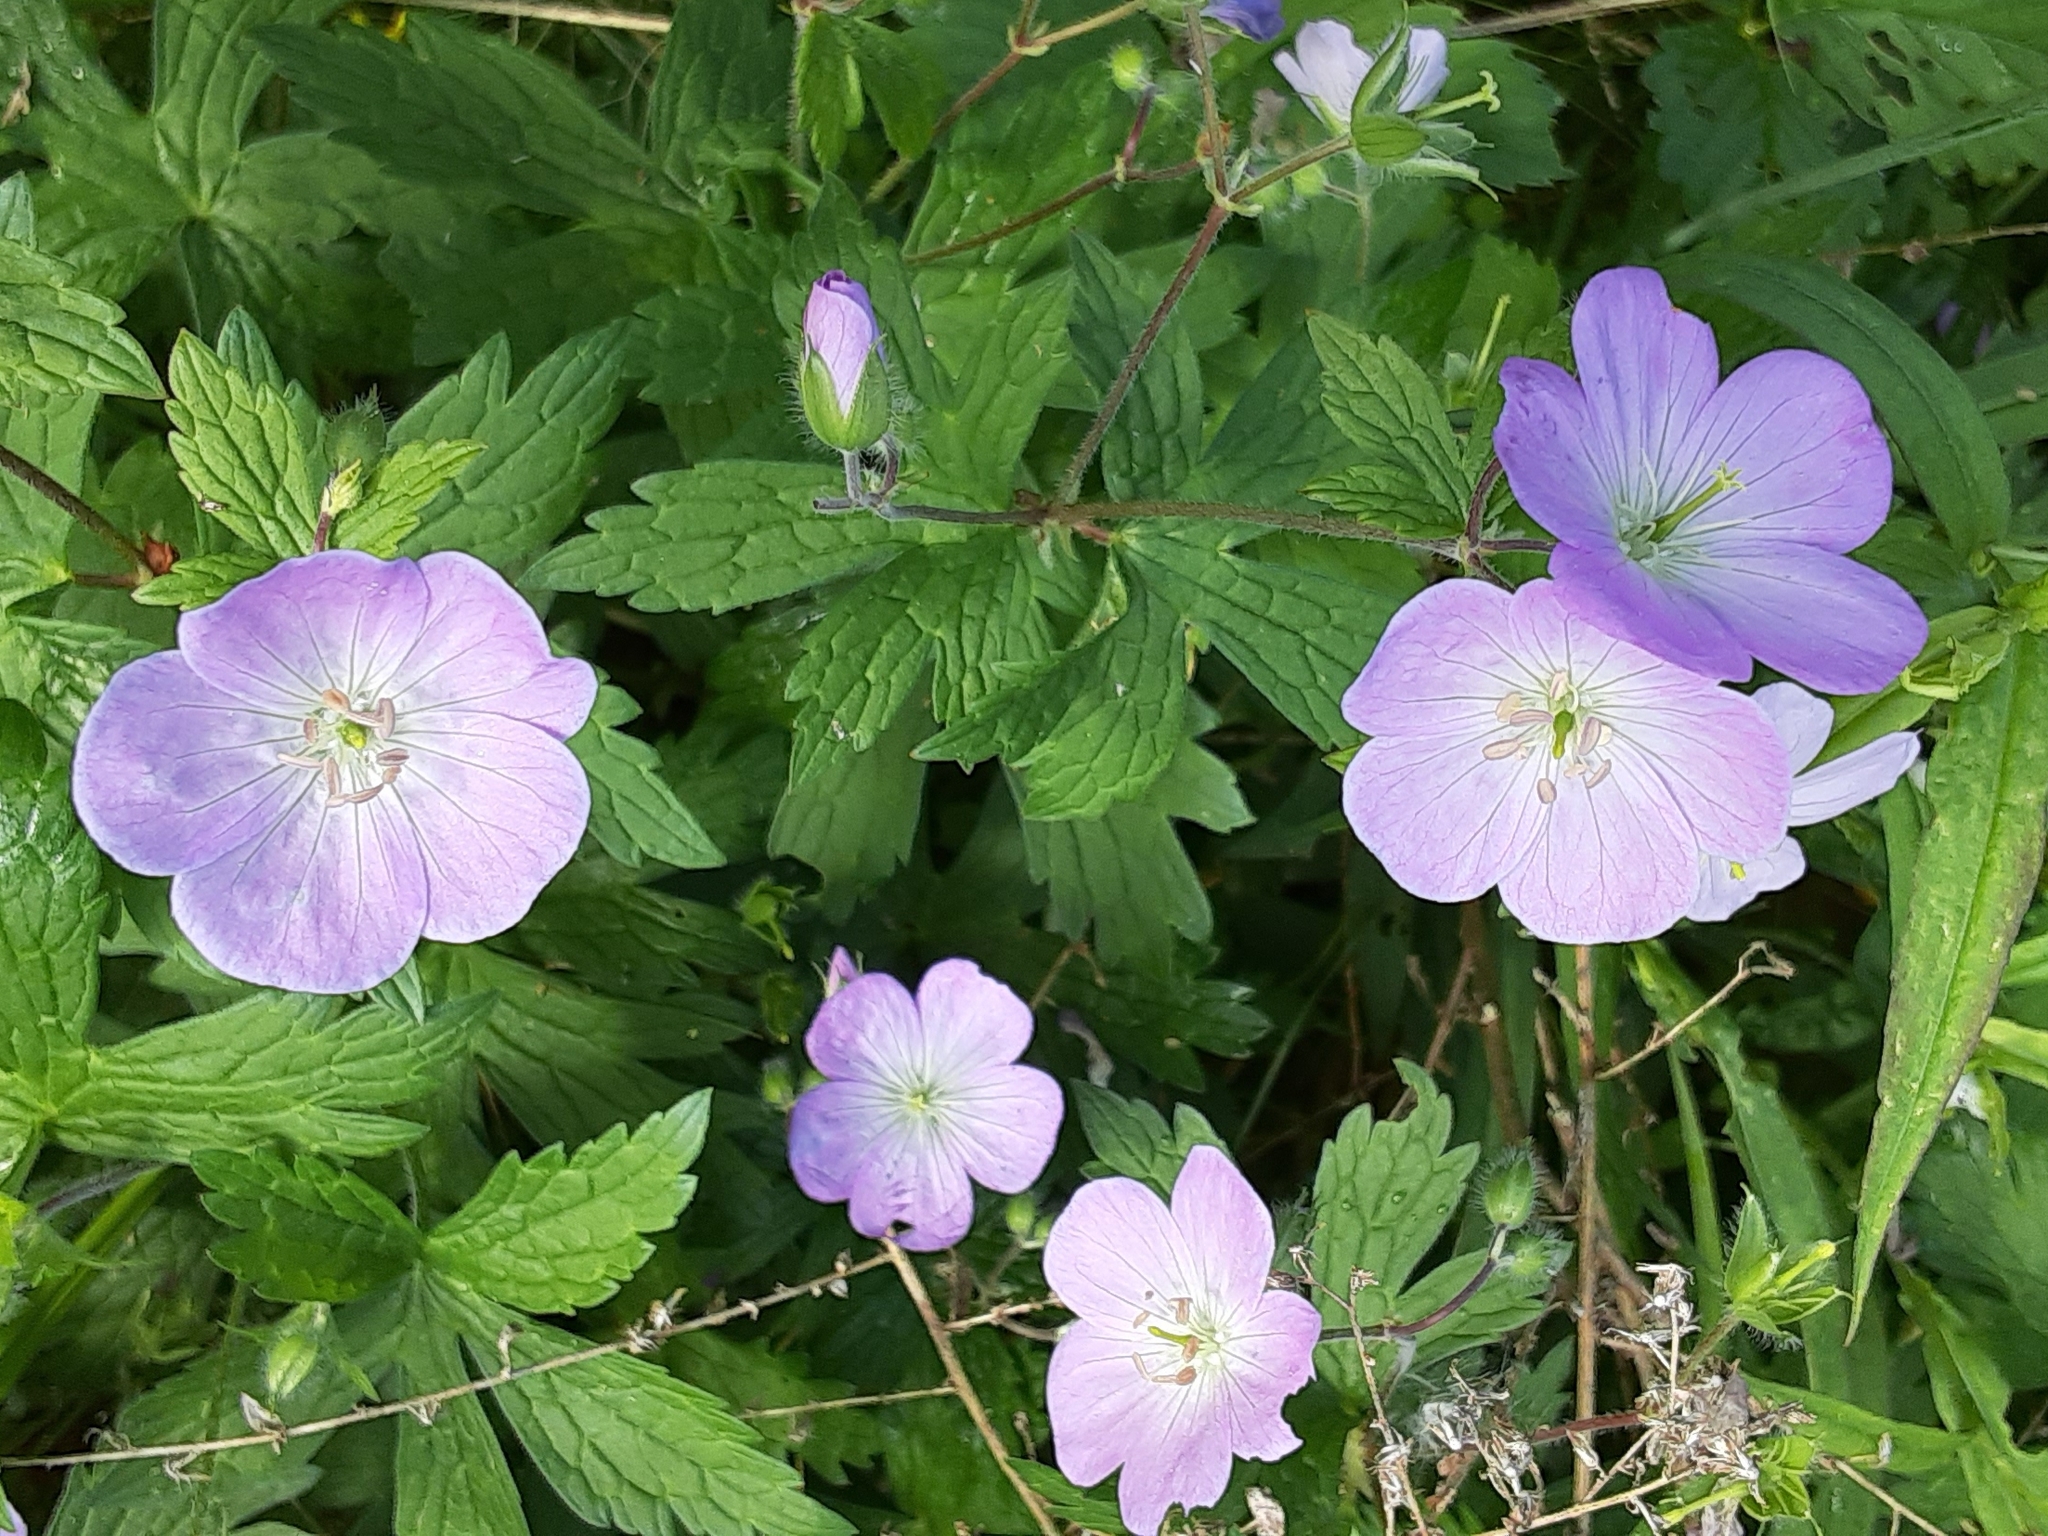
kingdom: Plantae
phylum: Tracheophyta
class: Magnoliopsida
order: Geraniales
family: Geraniaceae
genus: Geranium
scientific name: Geranium maculatum
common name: Spotted geranium
